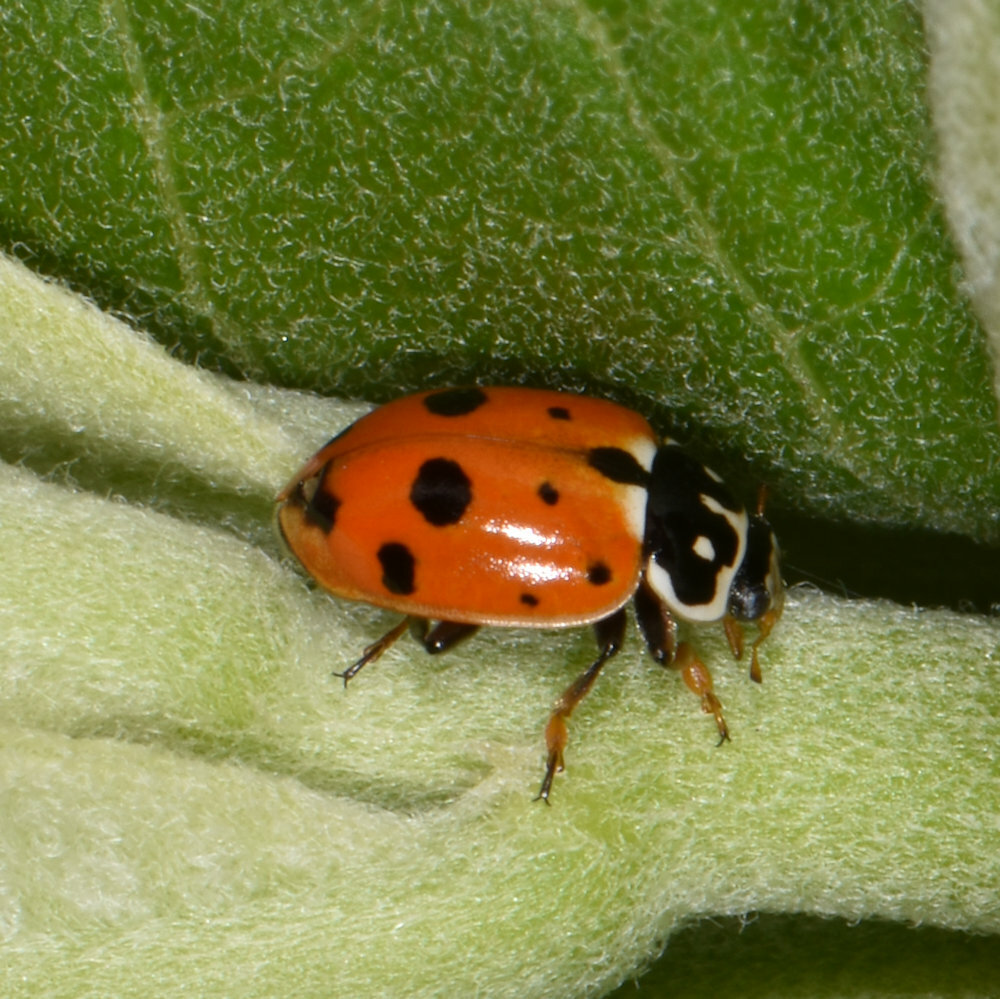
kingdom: Animalia
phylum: Arthropoda
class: Insecta
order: Coleoptera
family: Coccinellidae
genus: Hippodamia
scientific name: Hippodamia variegata
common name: Ladybird beetle
